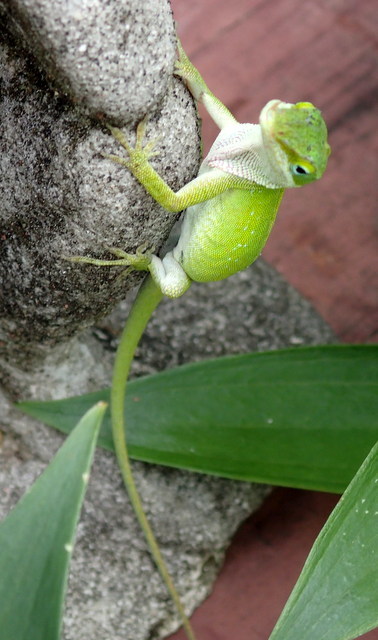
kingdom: Animalia
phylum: Chordata
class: Squamata
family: Dactyloidae
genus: Anolis
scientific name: Anolis carolinensis
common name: Green anole
